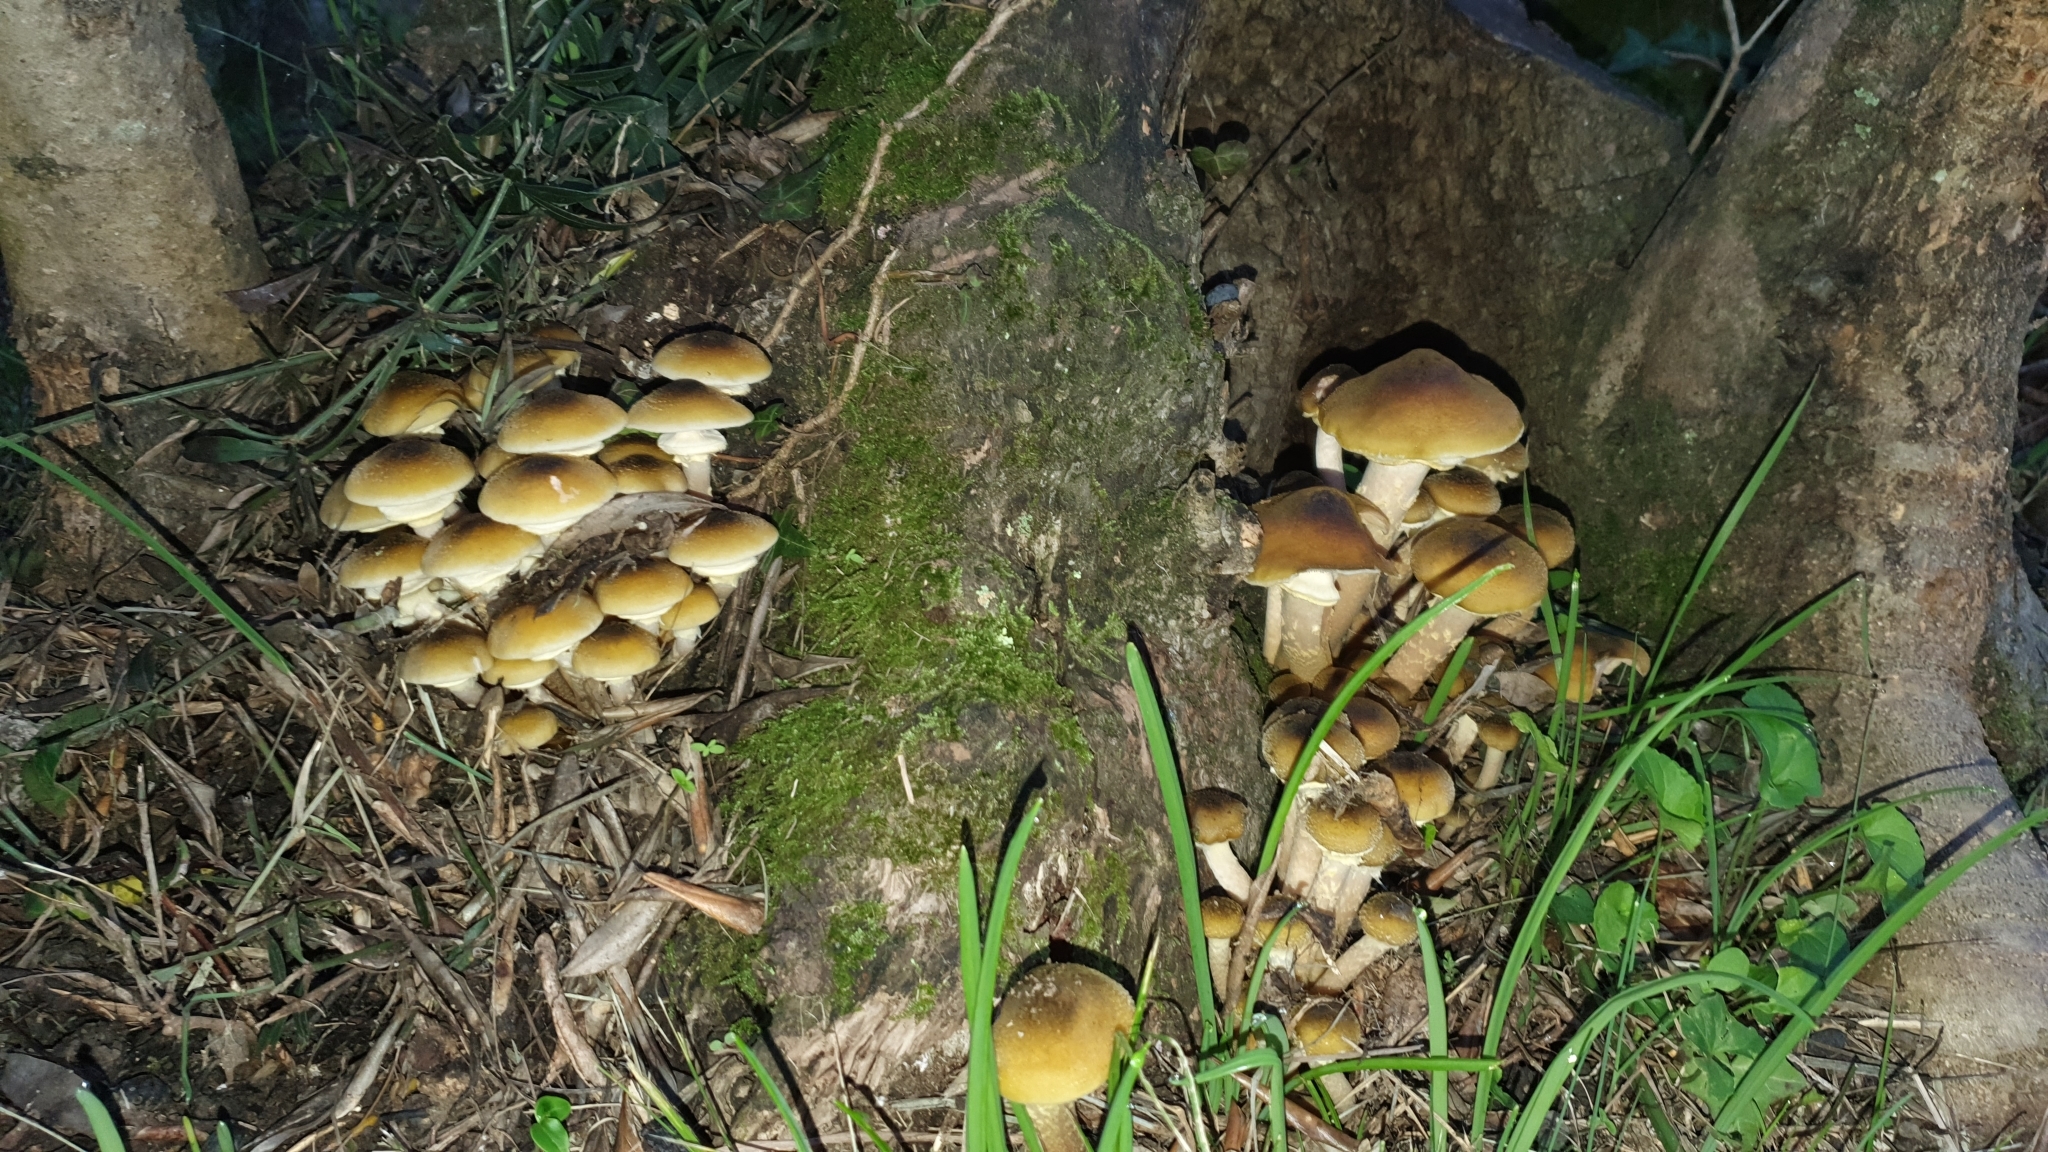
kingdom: Fungi
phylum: Basidiomycota
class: Agaricomycetes
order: Agaricales
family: Physalacriaceae
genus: Armillaria
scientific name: Armillaria mellea
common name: Honey fungus
